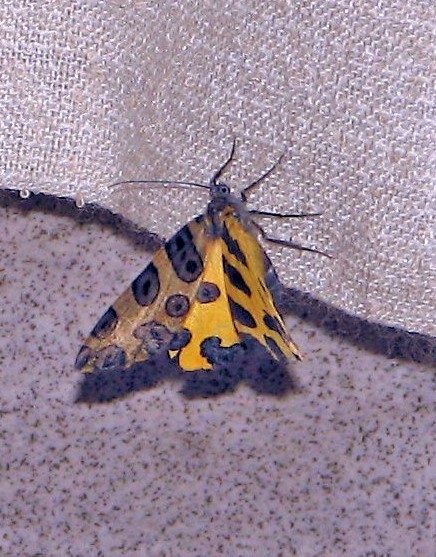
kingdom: Animalia
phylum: Arthropoda
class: Insecta
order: Lepidoptera
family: Geometridae
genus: Pantherodes
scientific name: Pantherodes pardalaria
